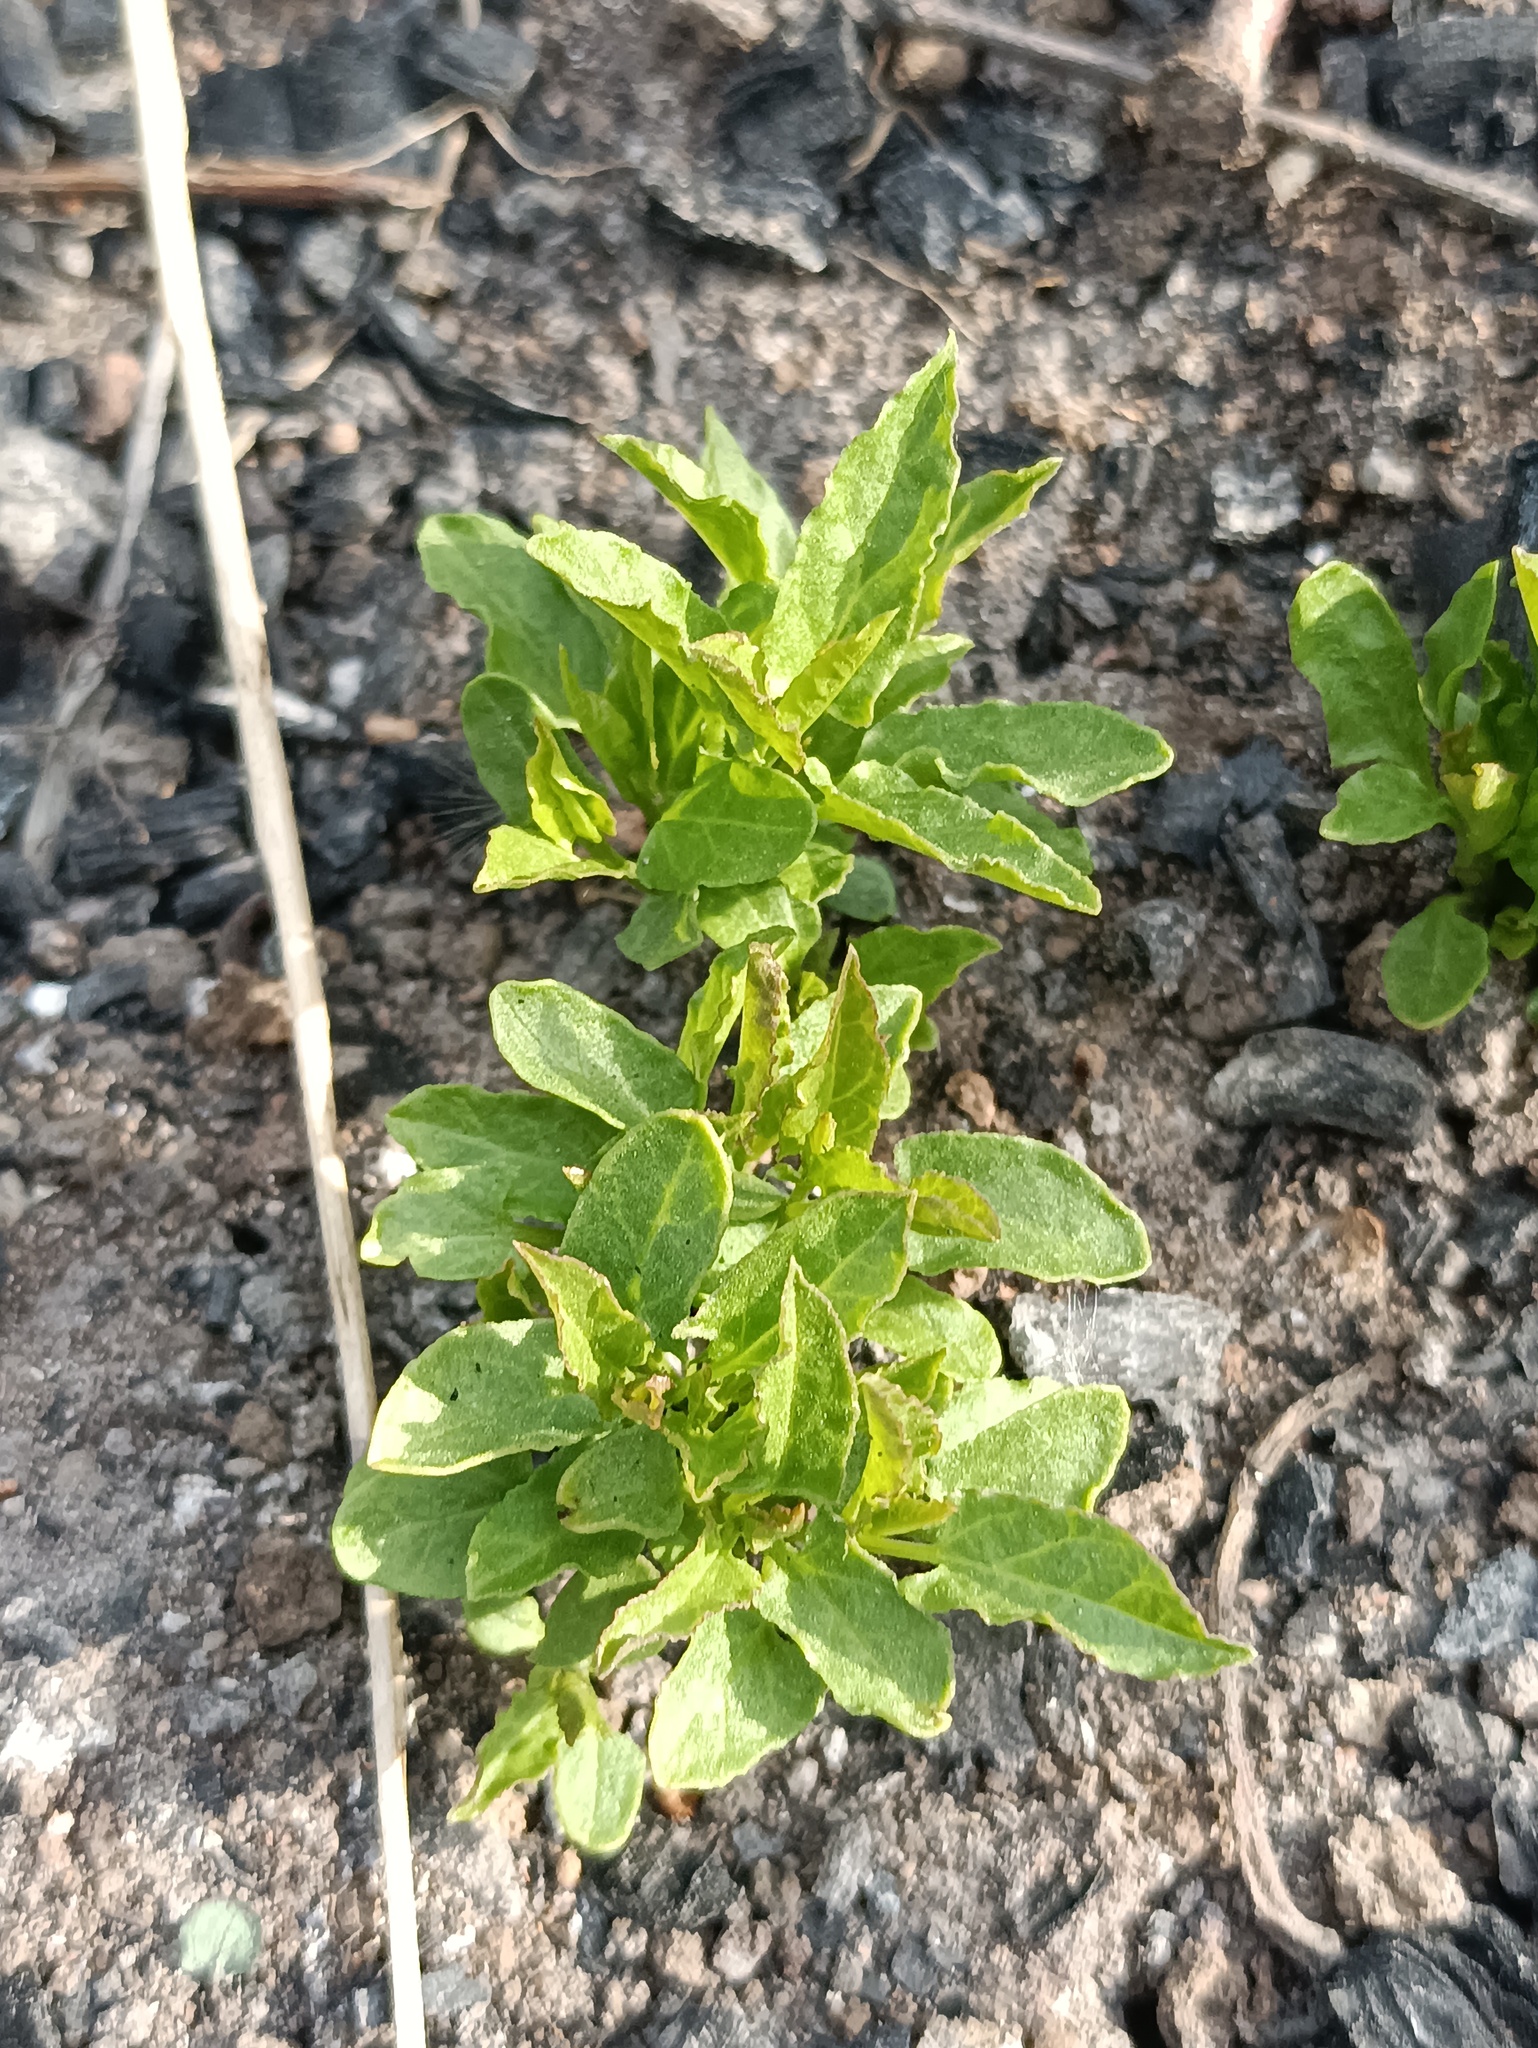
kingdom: Plantae
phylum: Tracheophyta
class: Magnoliopsida
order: Solanales
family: Convolvulaceae
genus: Convolvulus
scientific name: Convolvulus arvensis
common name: Field bindweed
